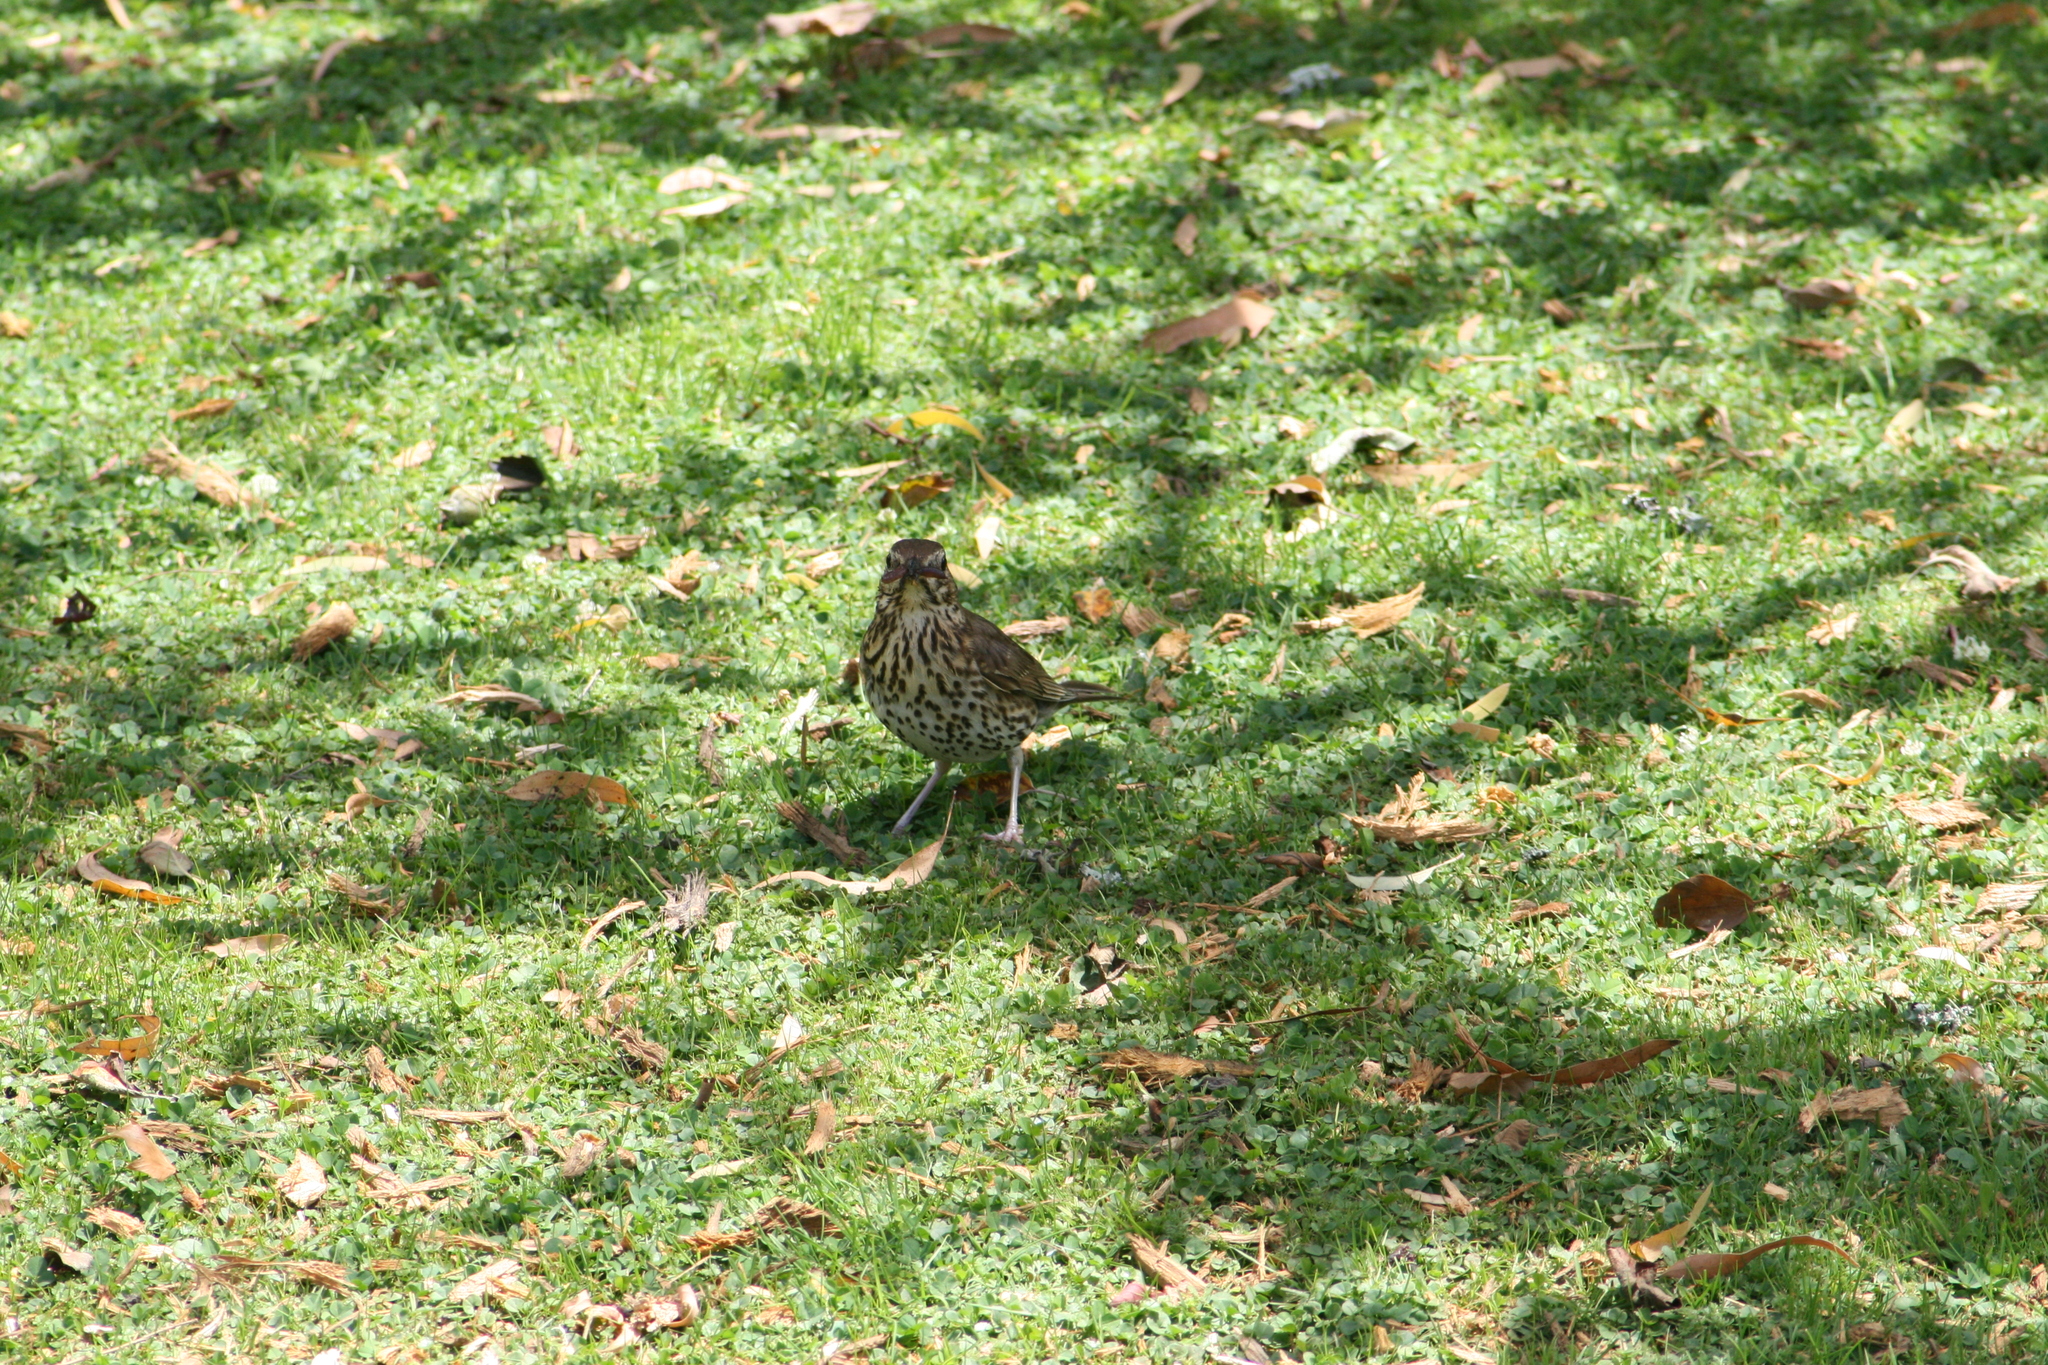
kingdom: Animalia
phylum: Chordata
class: Aves
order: Passeriformes
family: Turdidae
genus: Turdus
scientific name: Turdus philomelos
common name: Song thrush
